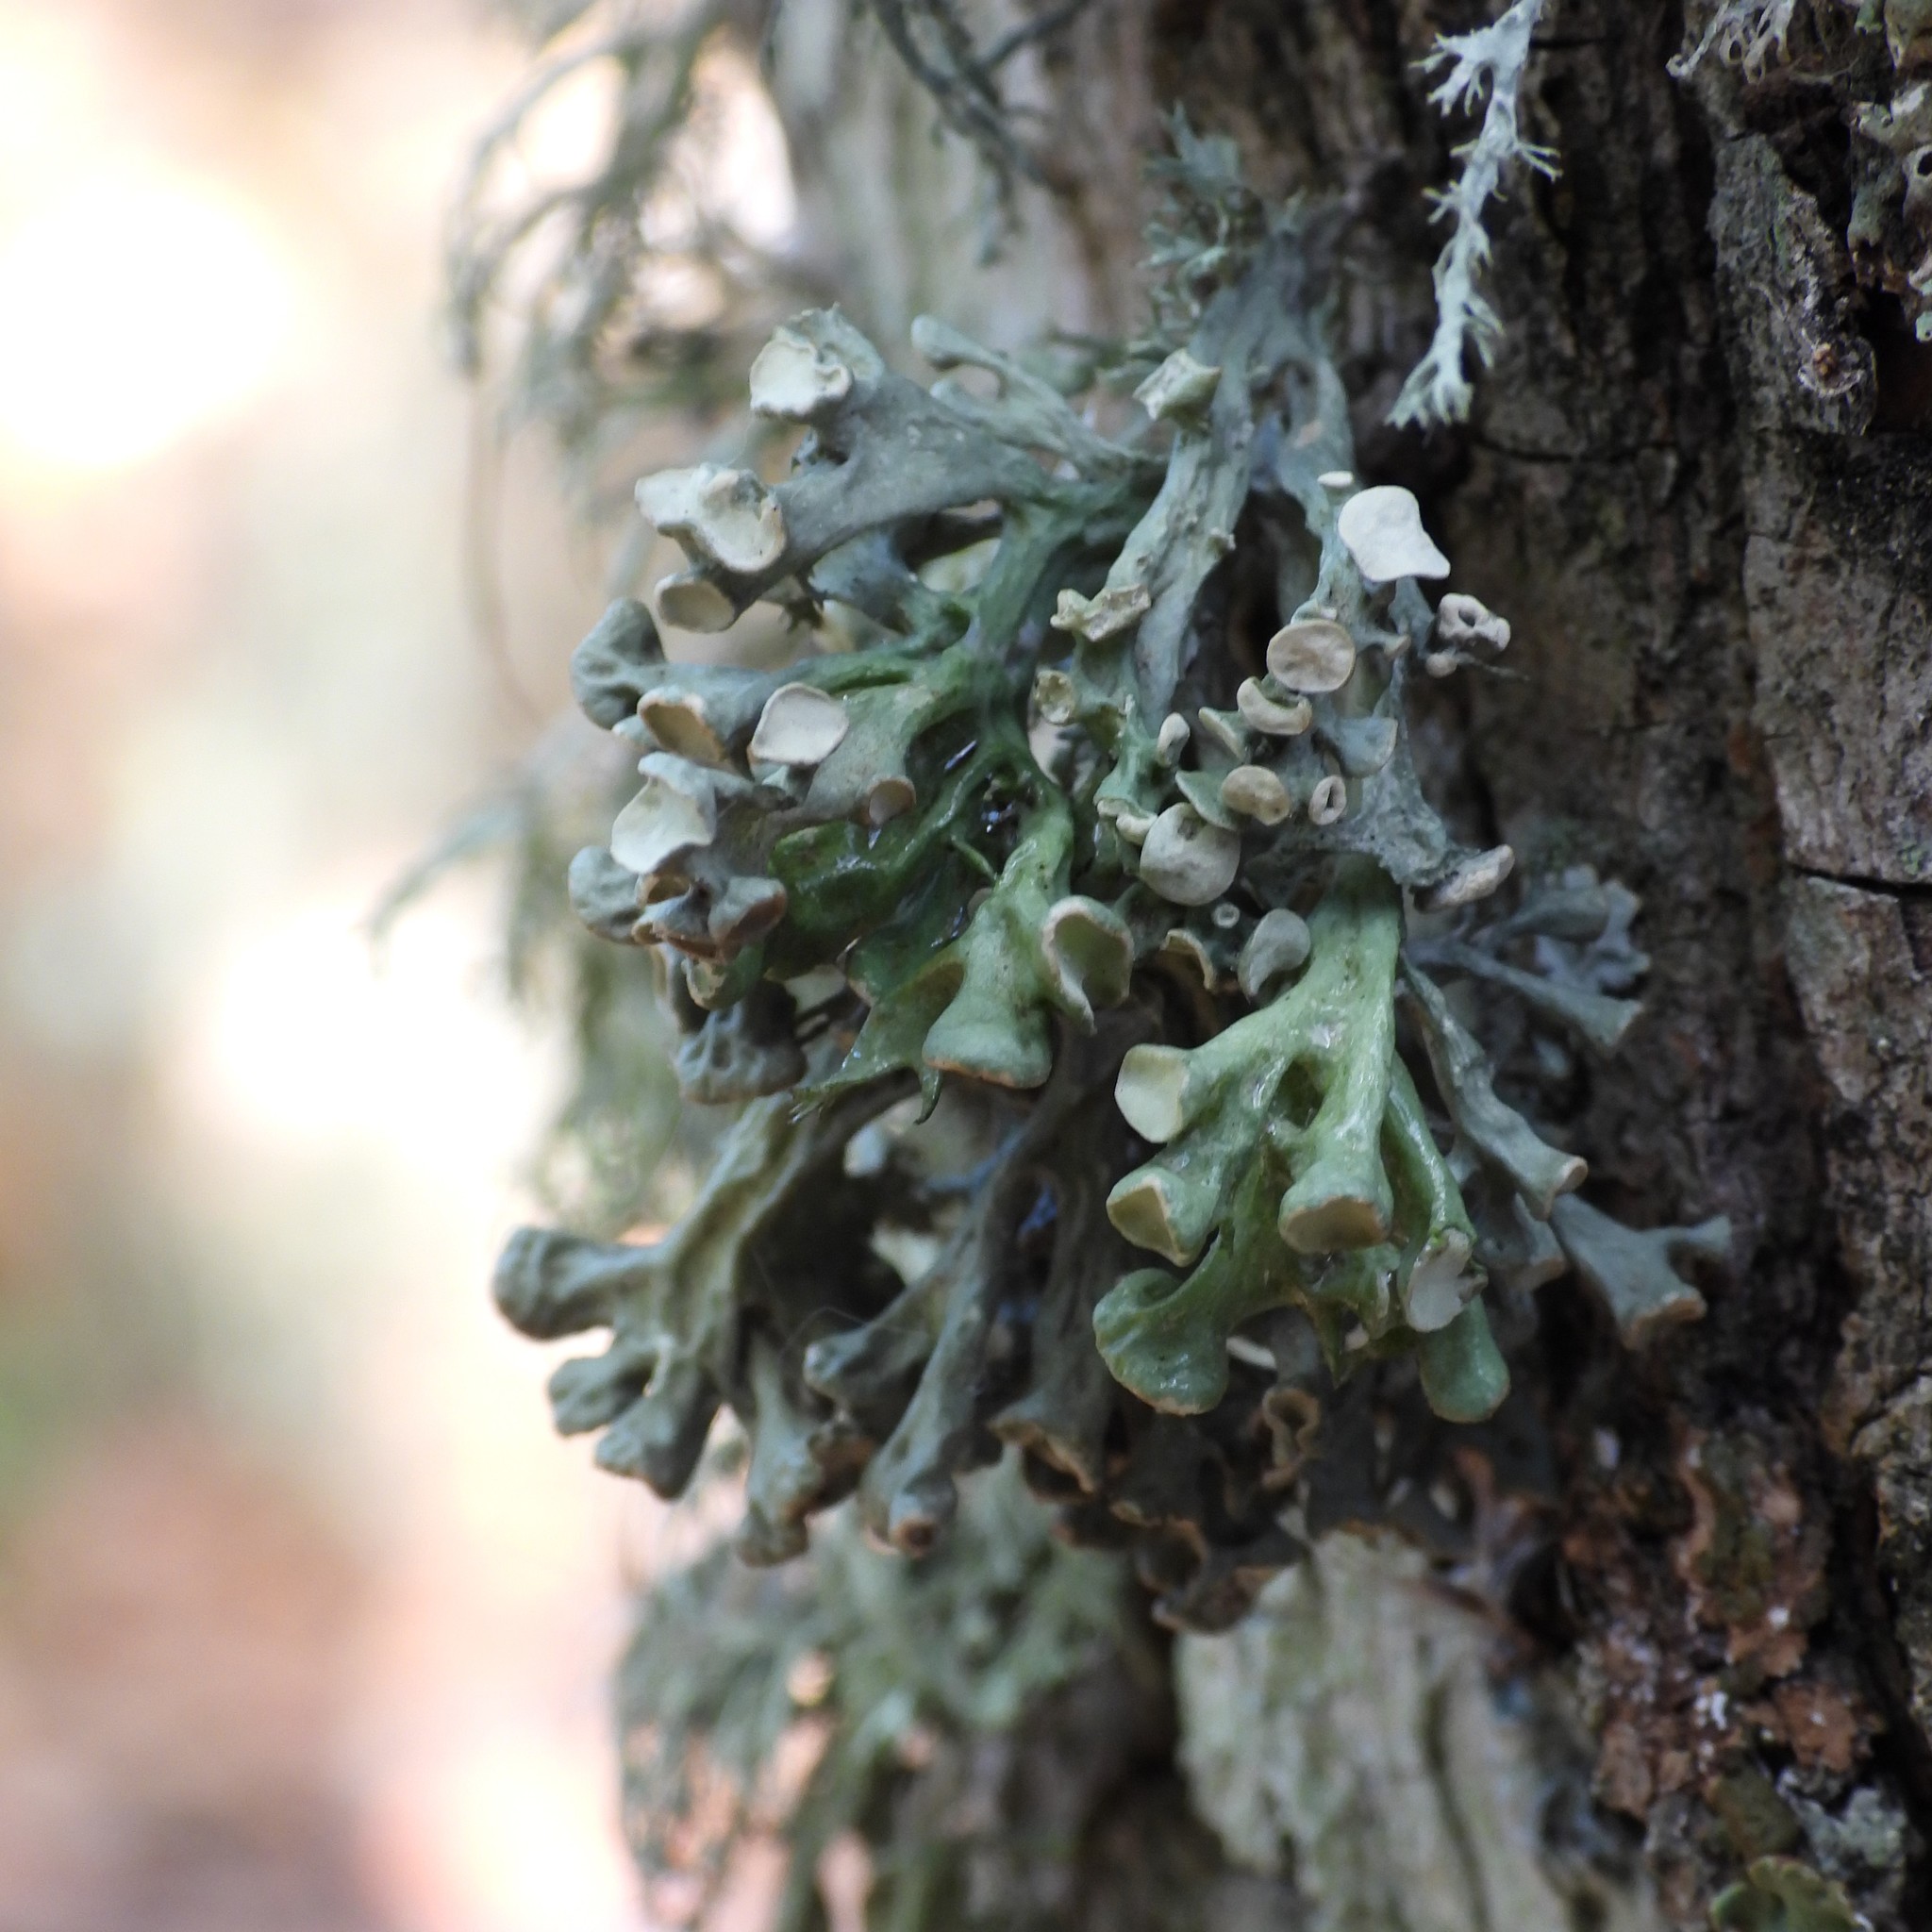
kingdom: Fungi
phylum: Ascomycota
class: Lecanoromycetes
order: Lecanorales
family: Ramalinaceae
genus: Ramalina
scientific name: Ramalina fastigiata
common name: Dotted ribbon lichen
